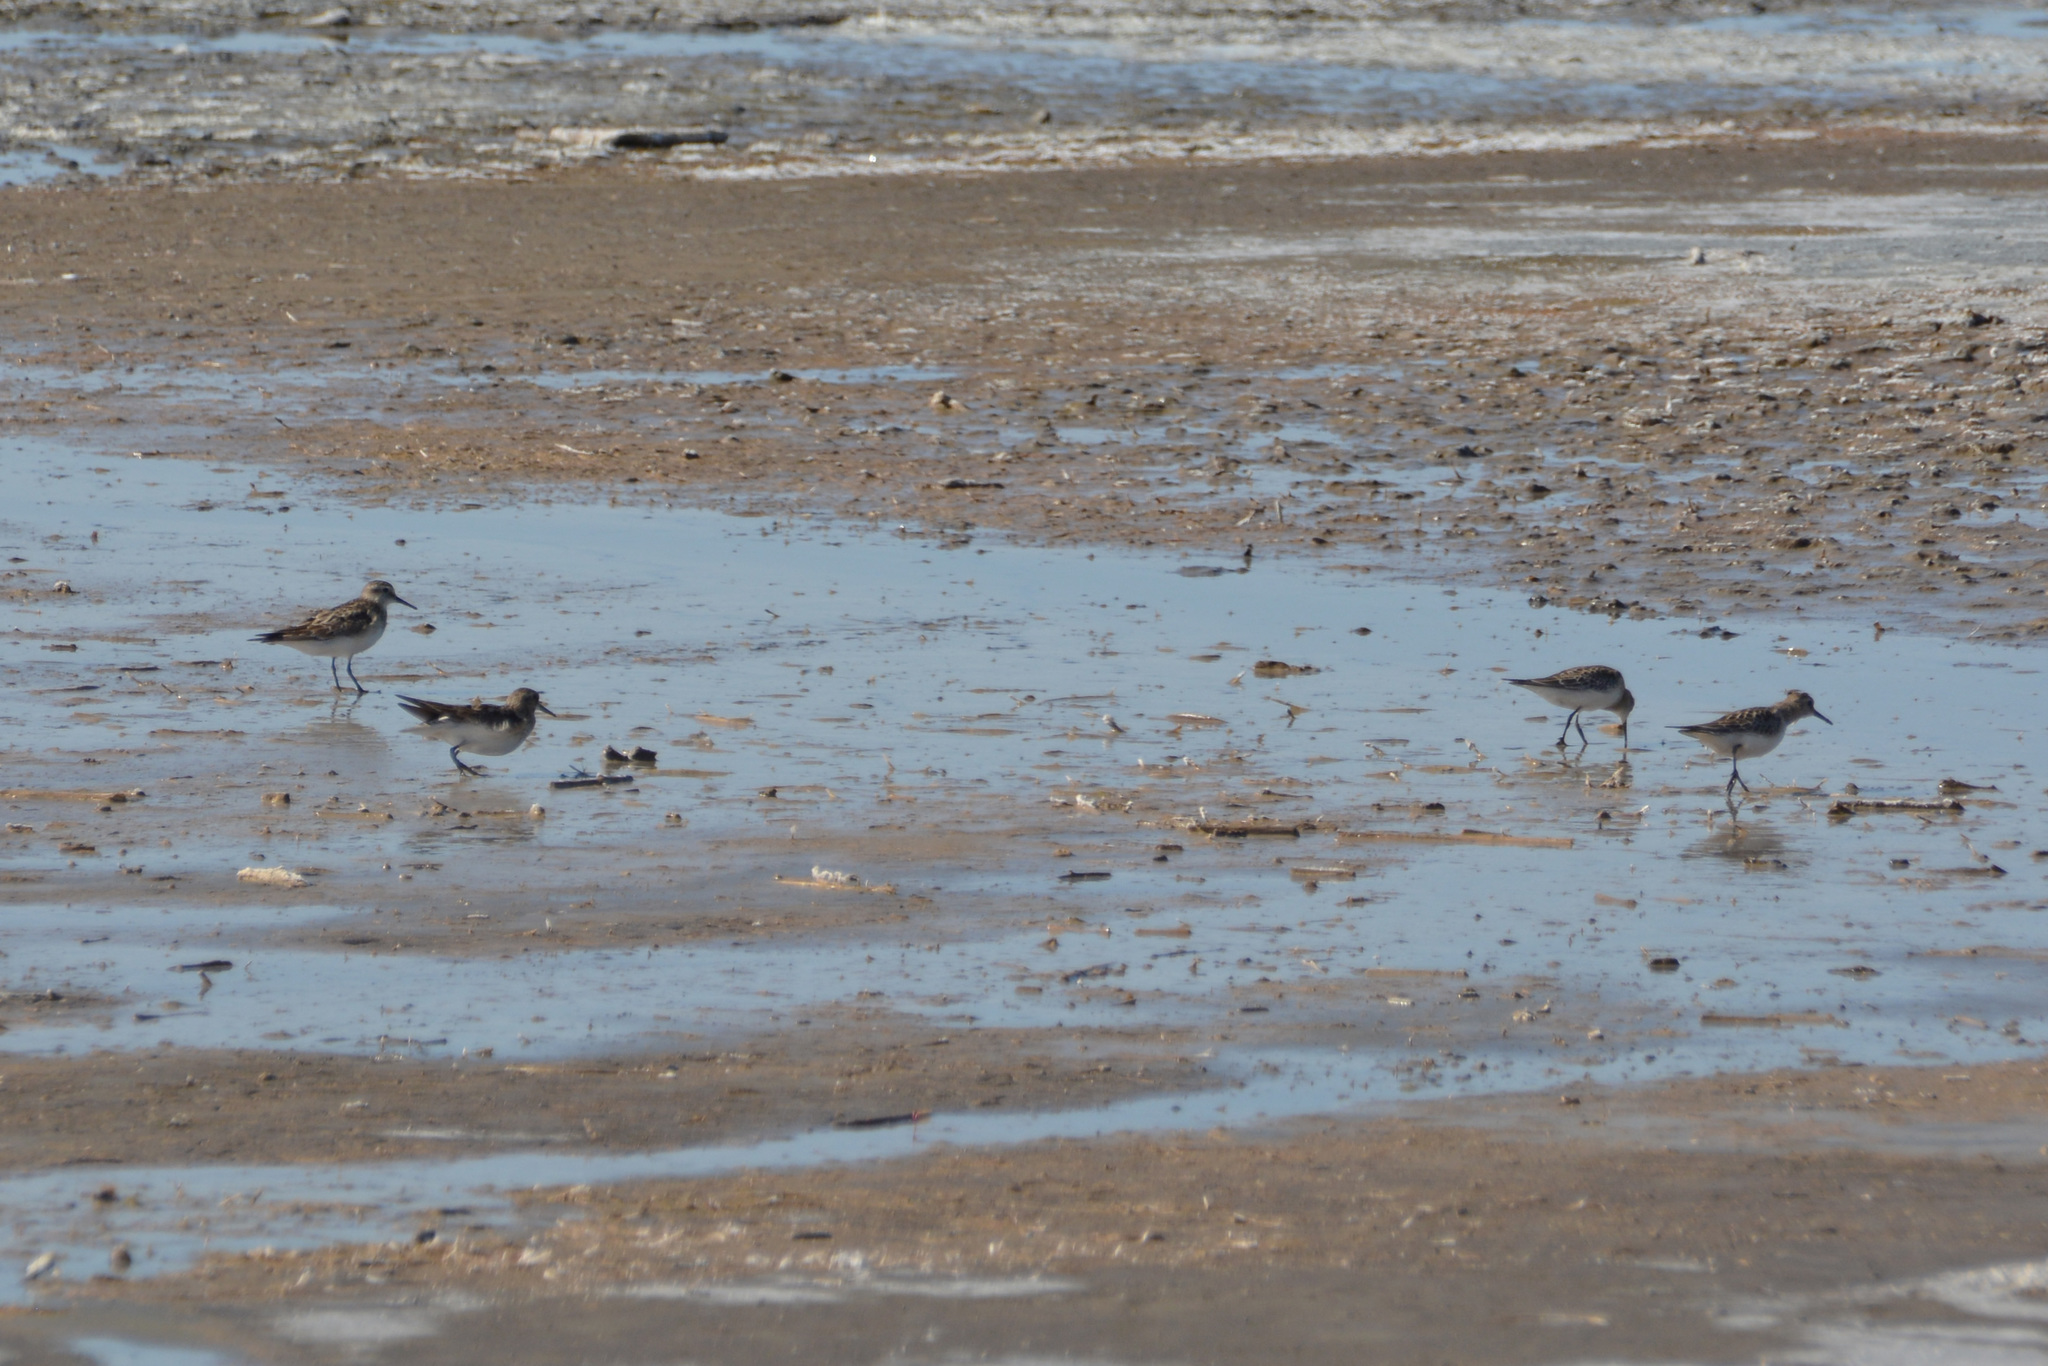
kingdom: Animalia
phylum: Chordata
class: Aves
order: Charadriiformes
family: Scolopacidae
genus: Calidris
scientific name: Calidris bairdii
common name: Baird's sandpiper
